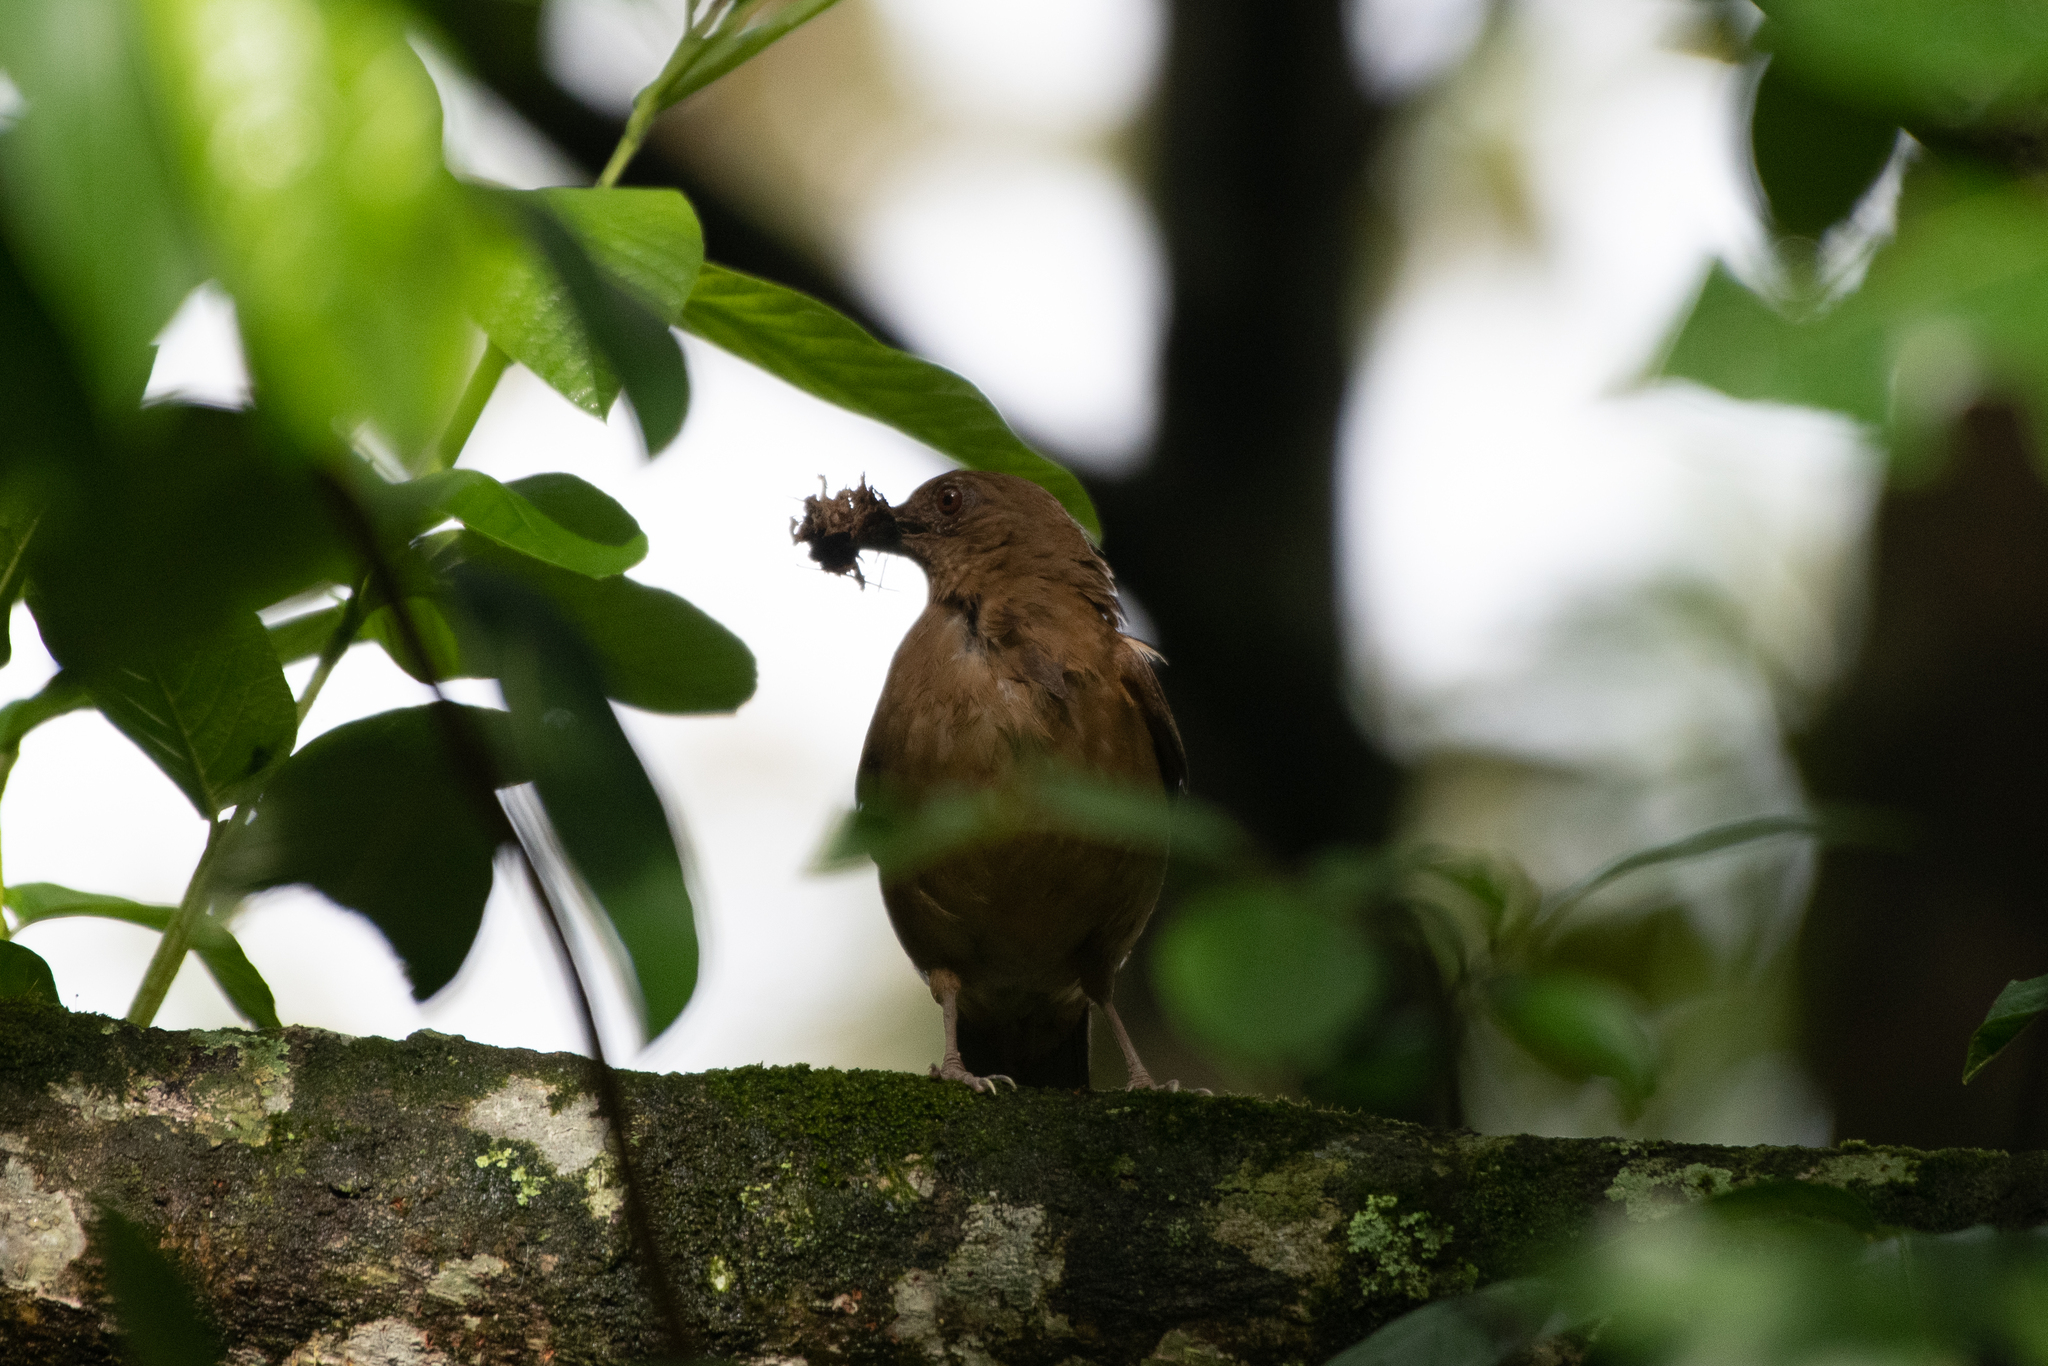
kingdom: Animalia
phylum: Chordata
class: Aves
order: Passeriformes
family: Turdidae
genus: Turdus
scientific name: Turdus grayi
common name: Clay-colored thrush
